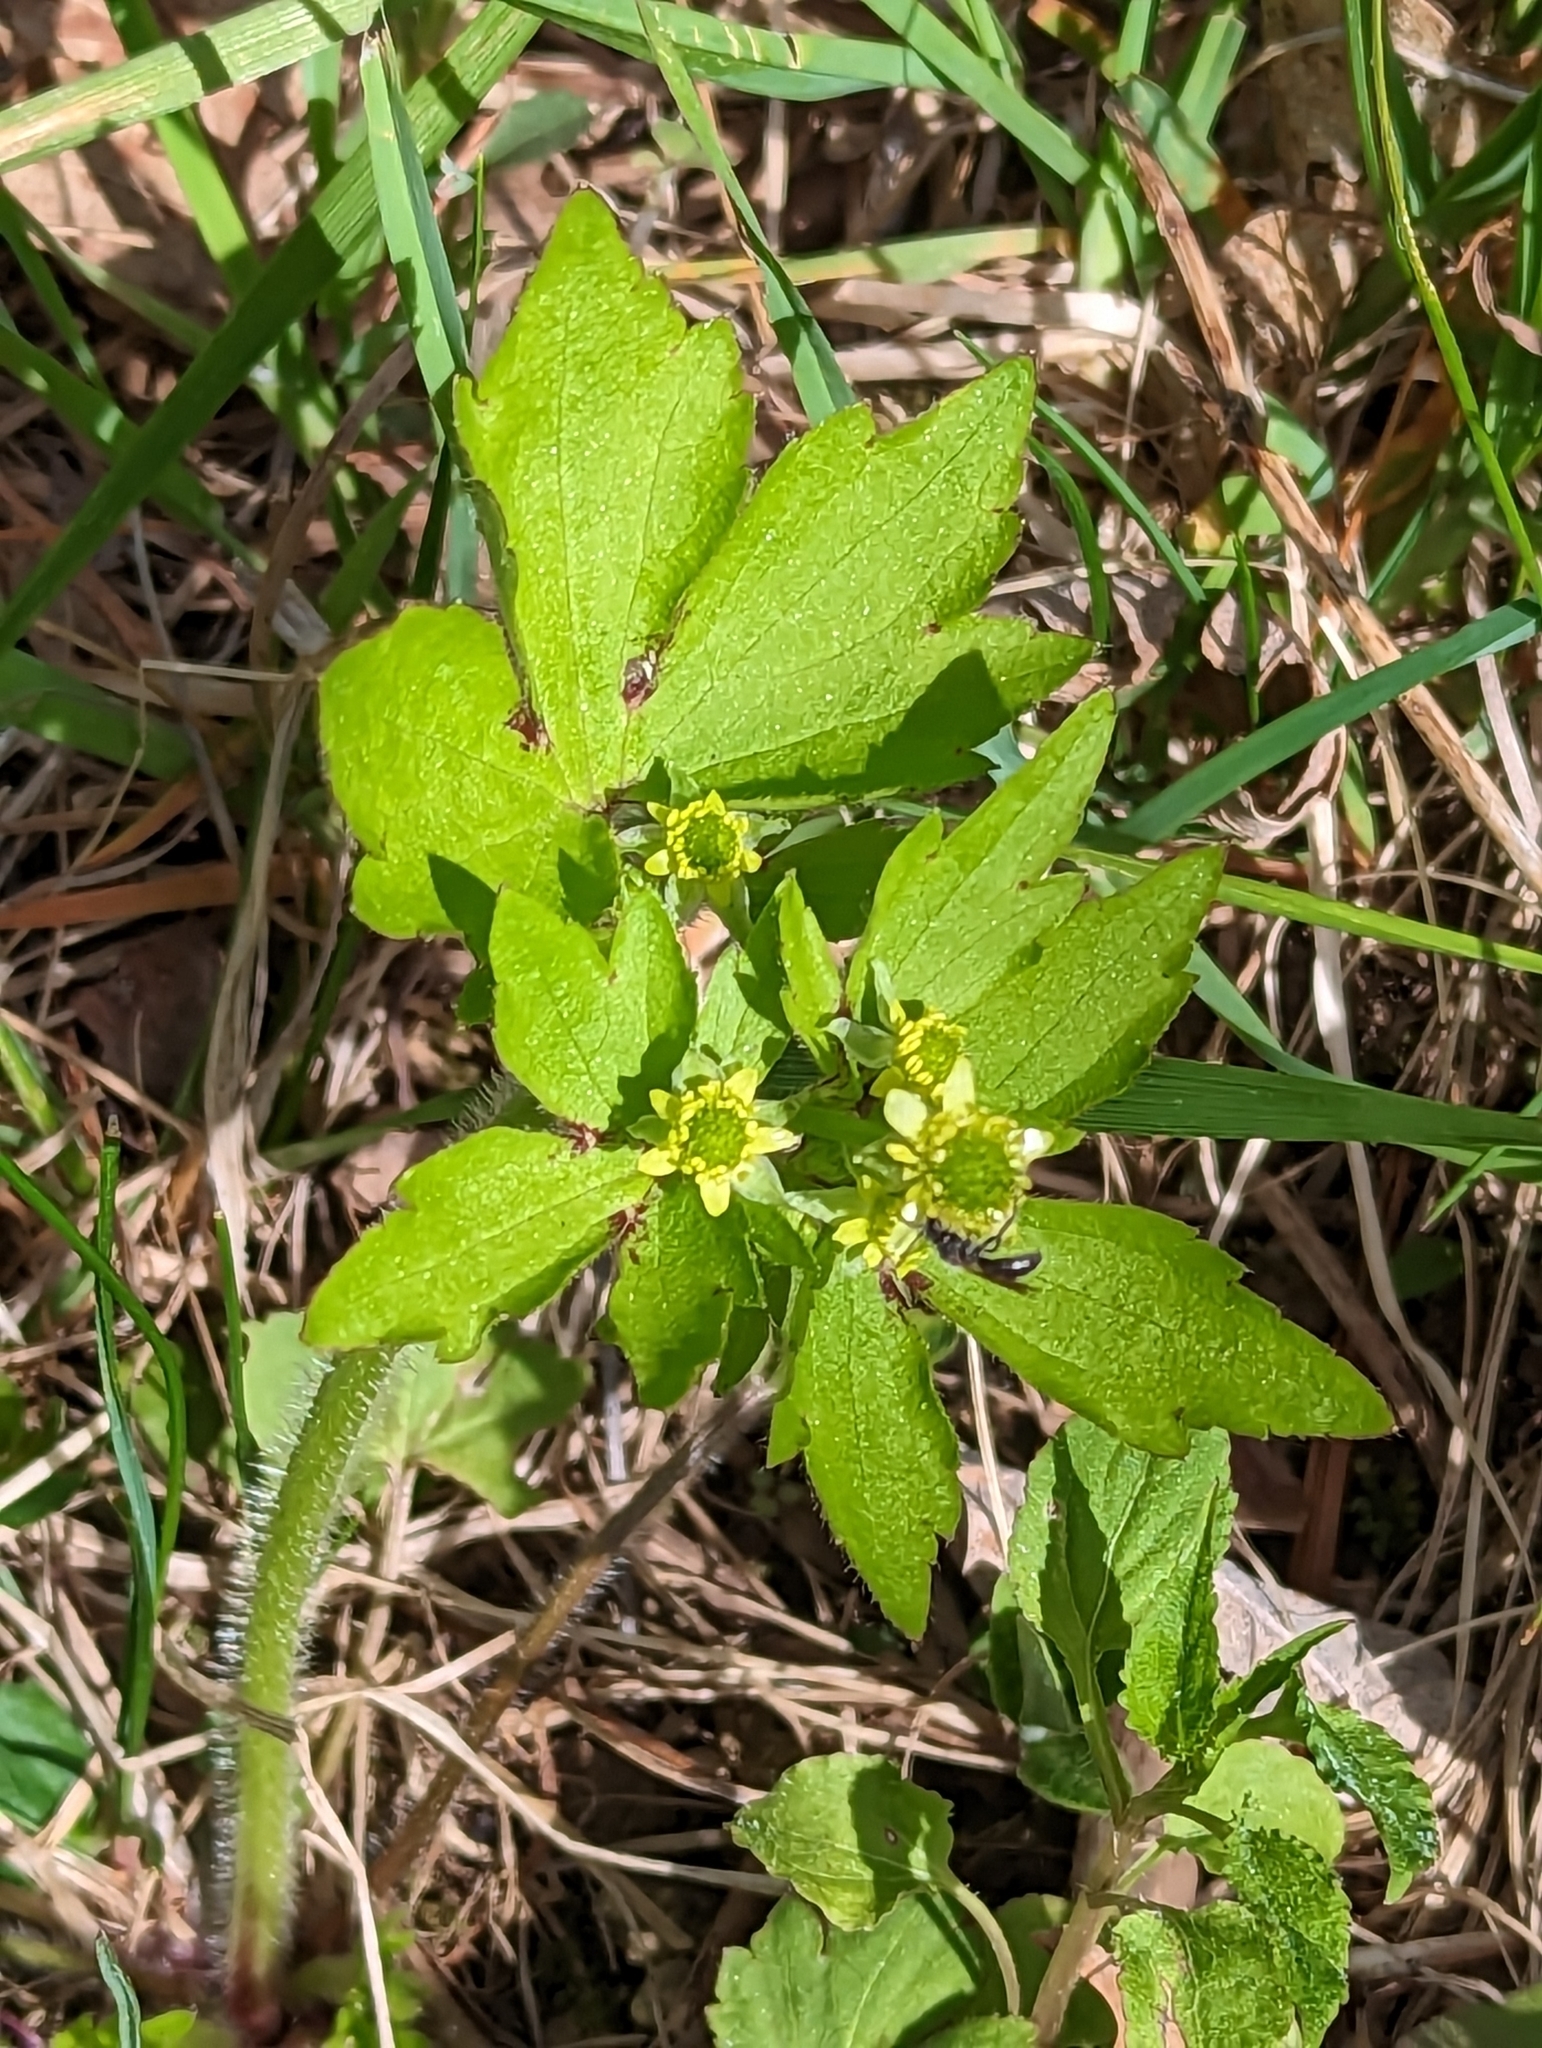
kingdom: Plantae
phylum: Tracheophyta
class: Magnoliopsida
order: Ranunculales
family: Ranunculaceae
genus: Ranunculus
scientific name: Ranunculus recurvatus
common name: Blisterwort
